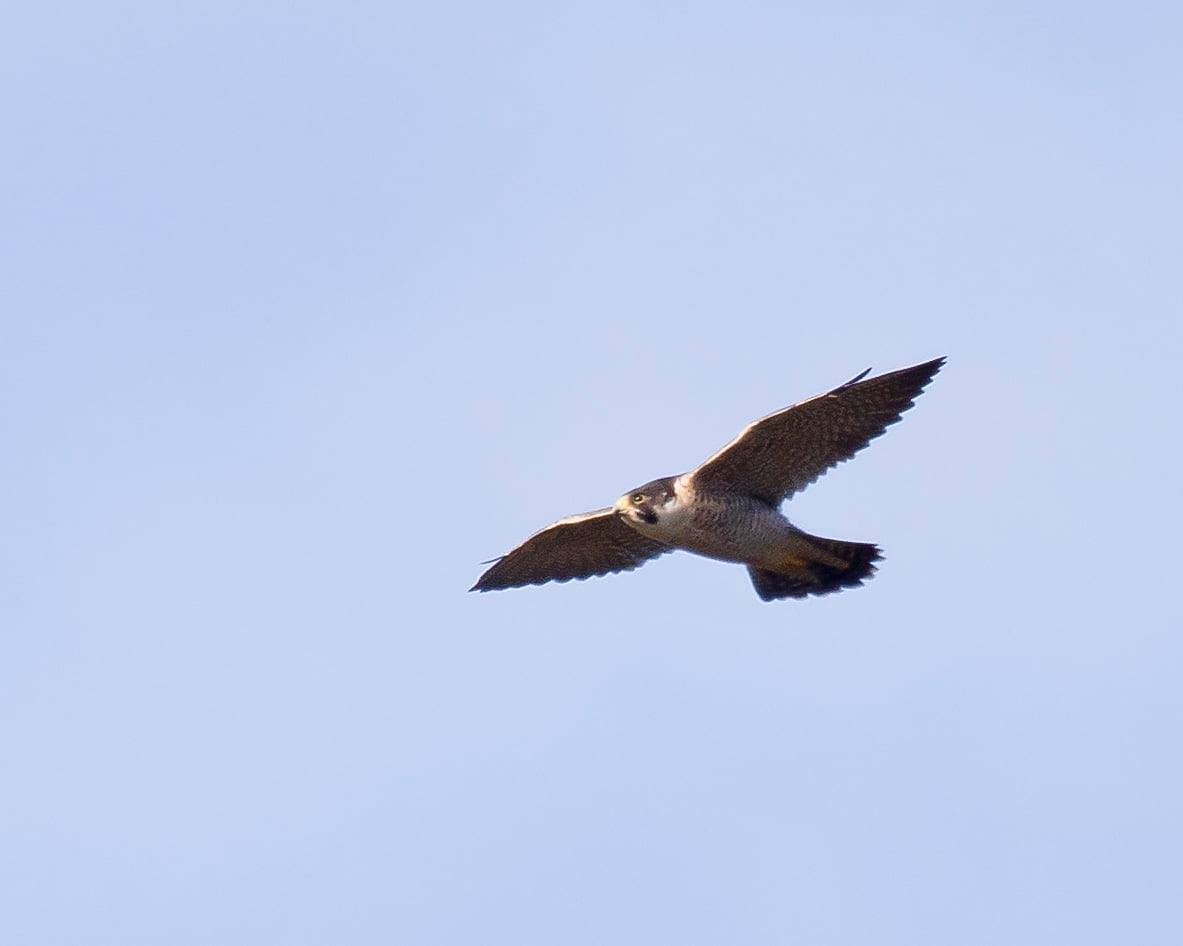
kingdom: Animalia
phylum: Chordata
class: Aves
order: Falconiformes
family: Falconidae
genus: Falco
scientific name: Falco peregrinus
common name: Peregrine falcon
